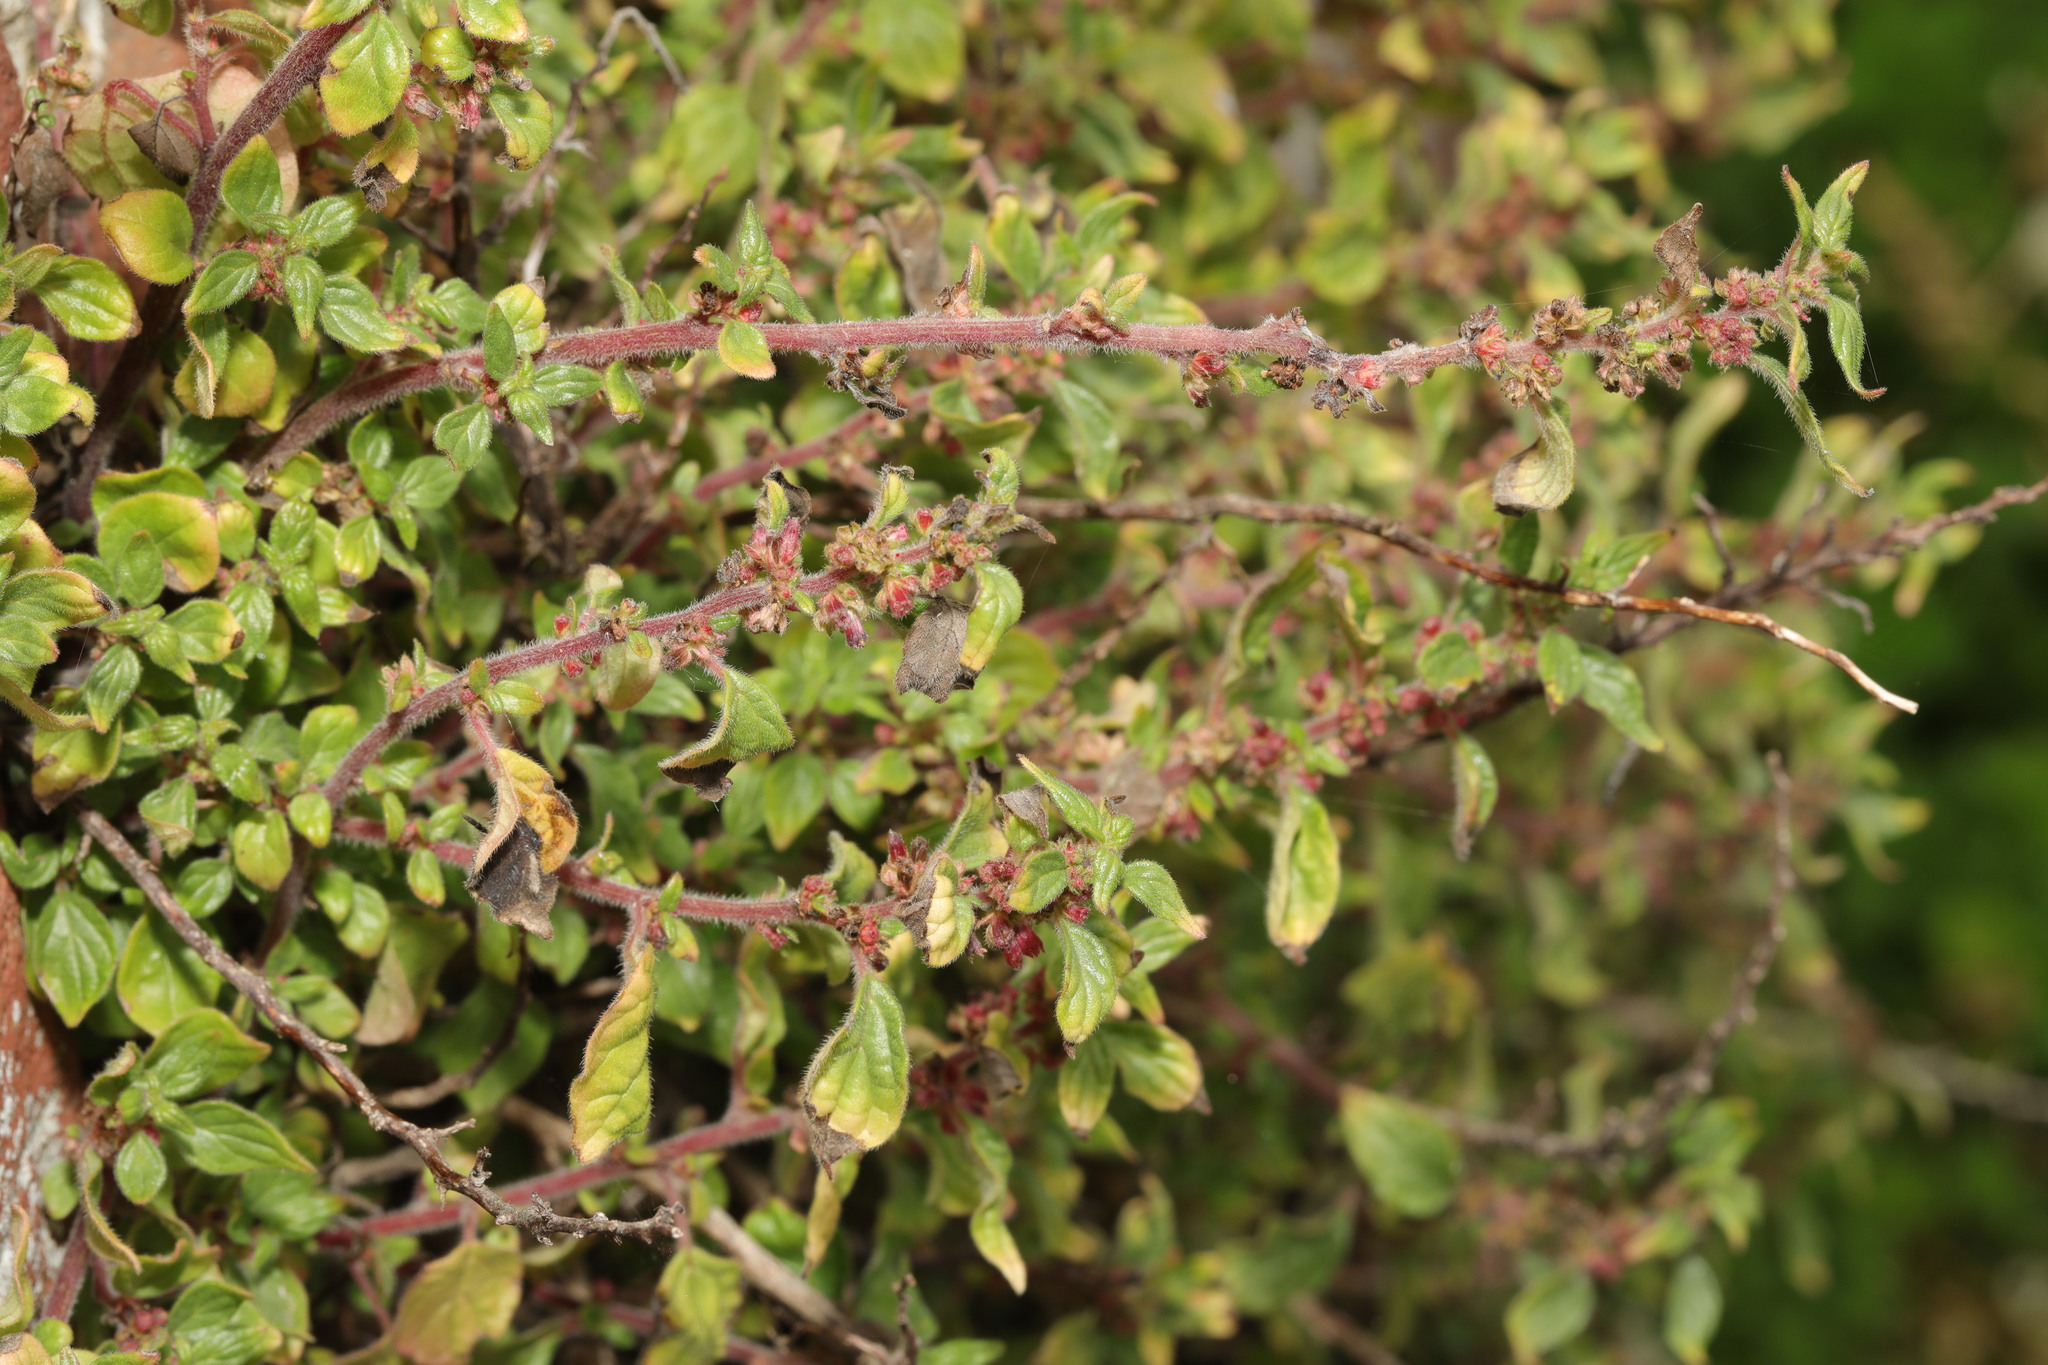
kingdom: Plantae
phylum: Tracheophyta
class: Magnoliopsida
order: Rosales
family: Urticaceae
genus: Parietaria
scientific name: Parietaria judaica
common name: Pellitory-of-the-wall
